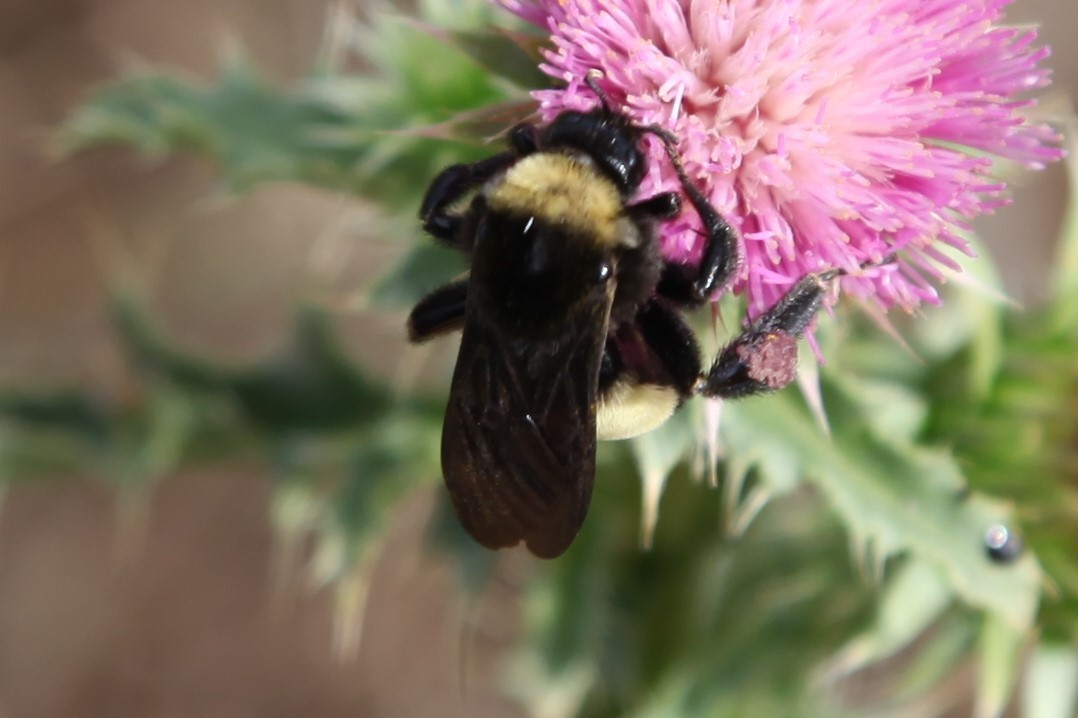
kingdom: Animalia
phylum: Arthropoda
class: Insecta
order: Hymenoptera
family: Apidae
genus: Bombus
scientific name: Bombus pensylvanicus
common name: Bumble bee
